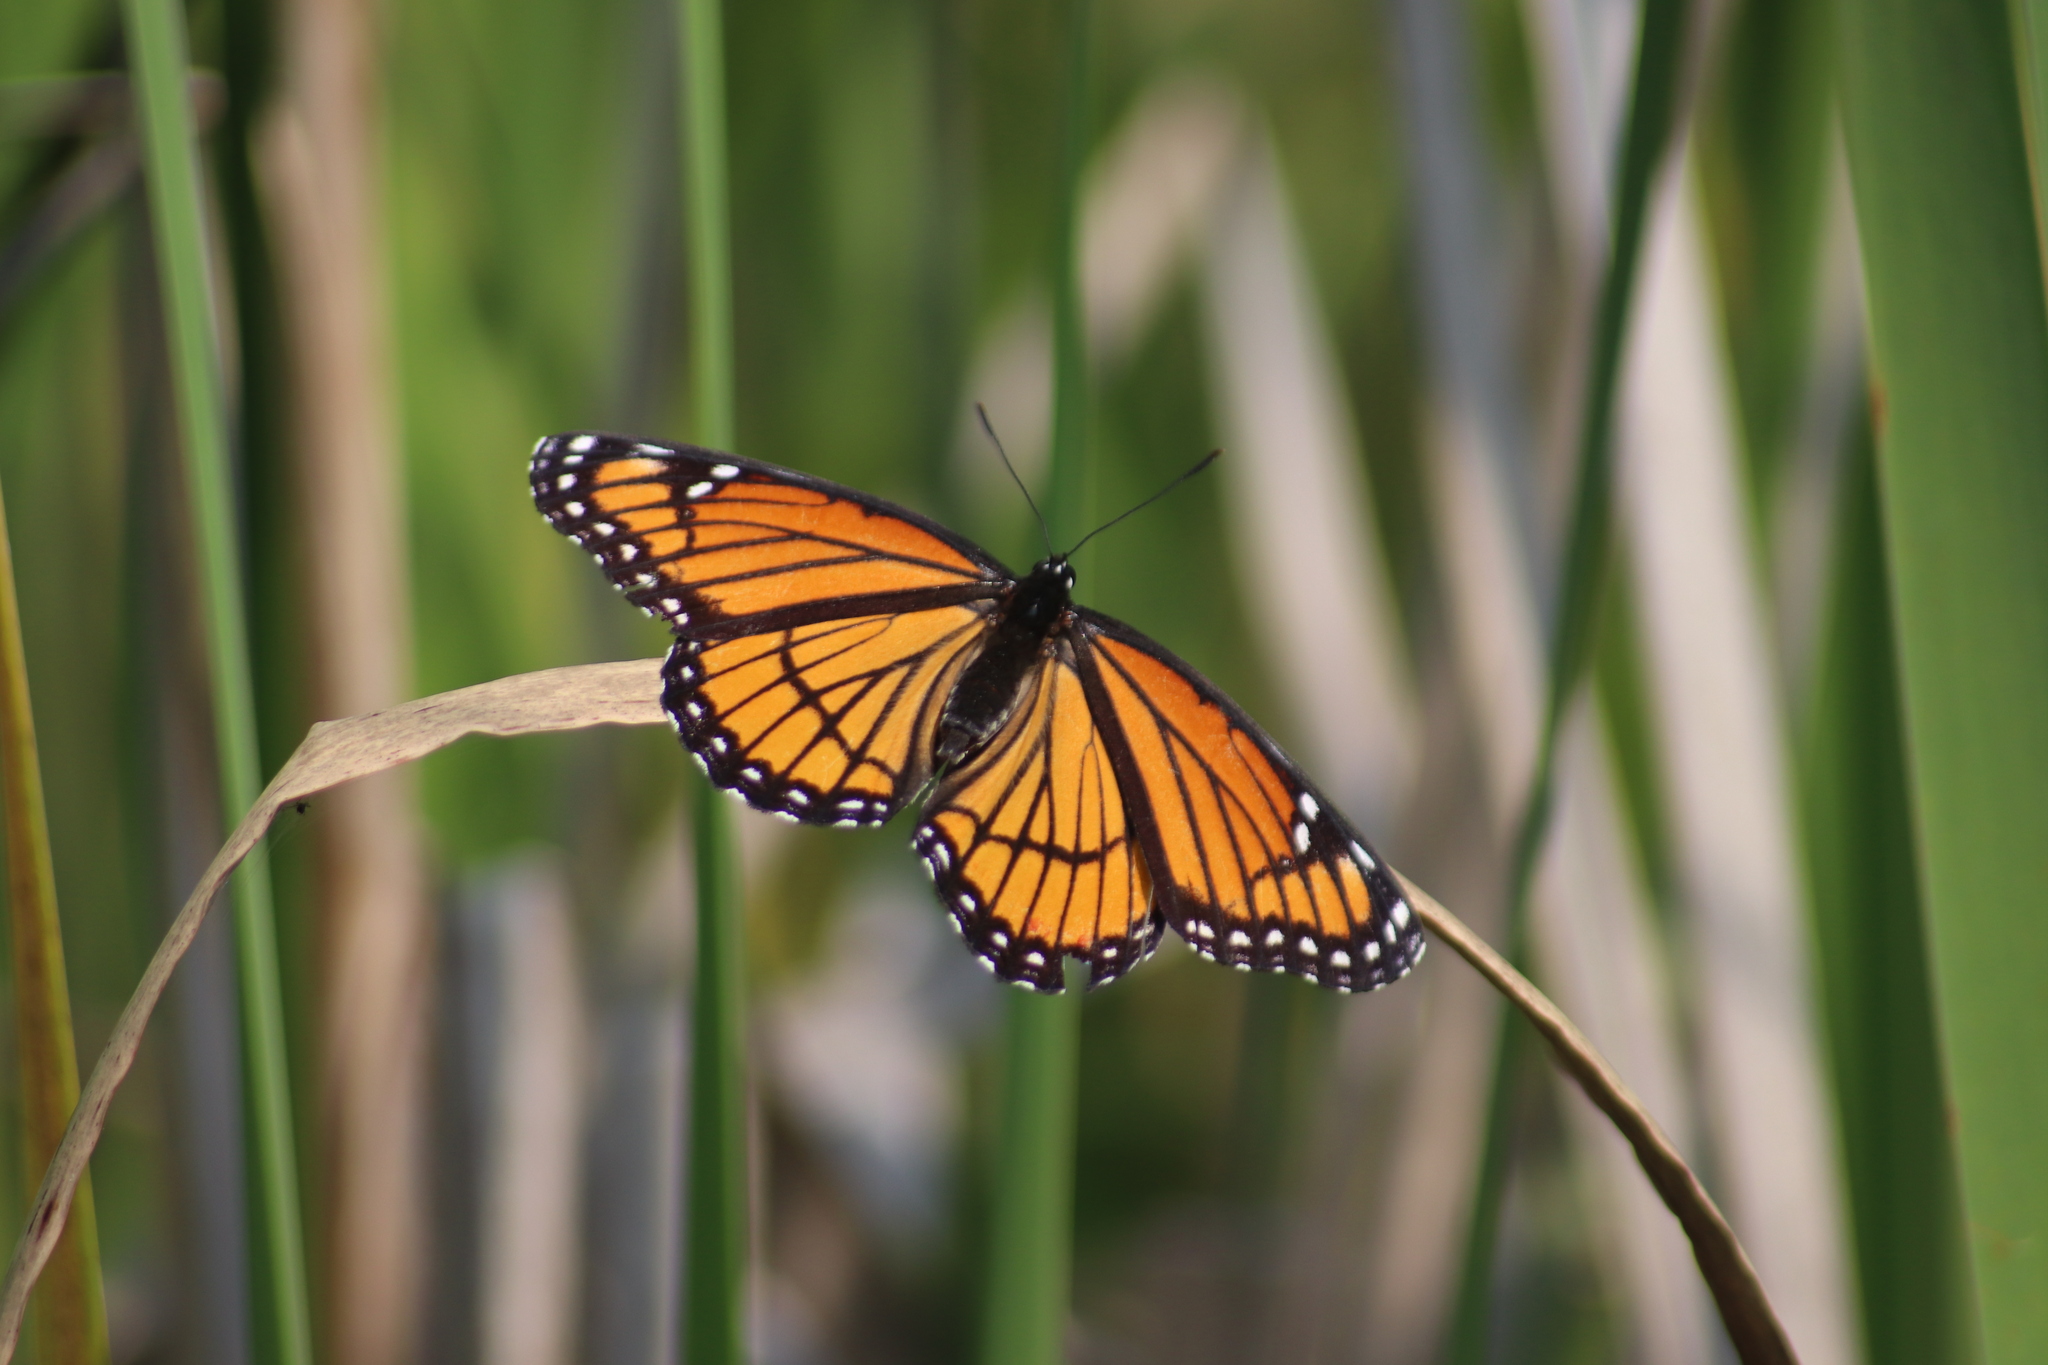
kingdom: Animalia
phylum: Arthropoda
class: Insecta
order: Lepidoptera
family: Nymphalidae
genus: Limenitis
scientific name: Limenitis archippus
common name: Viceroy
